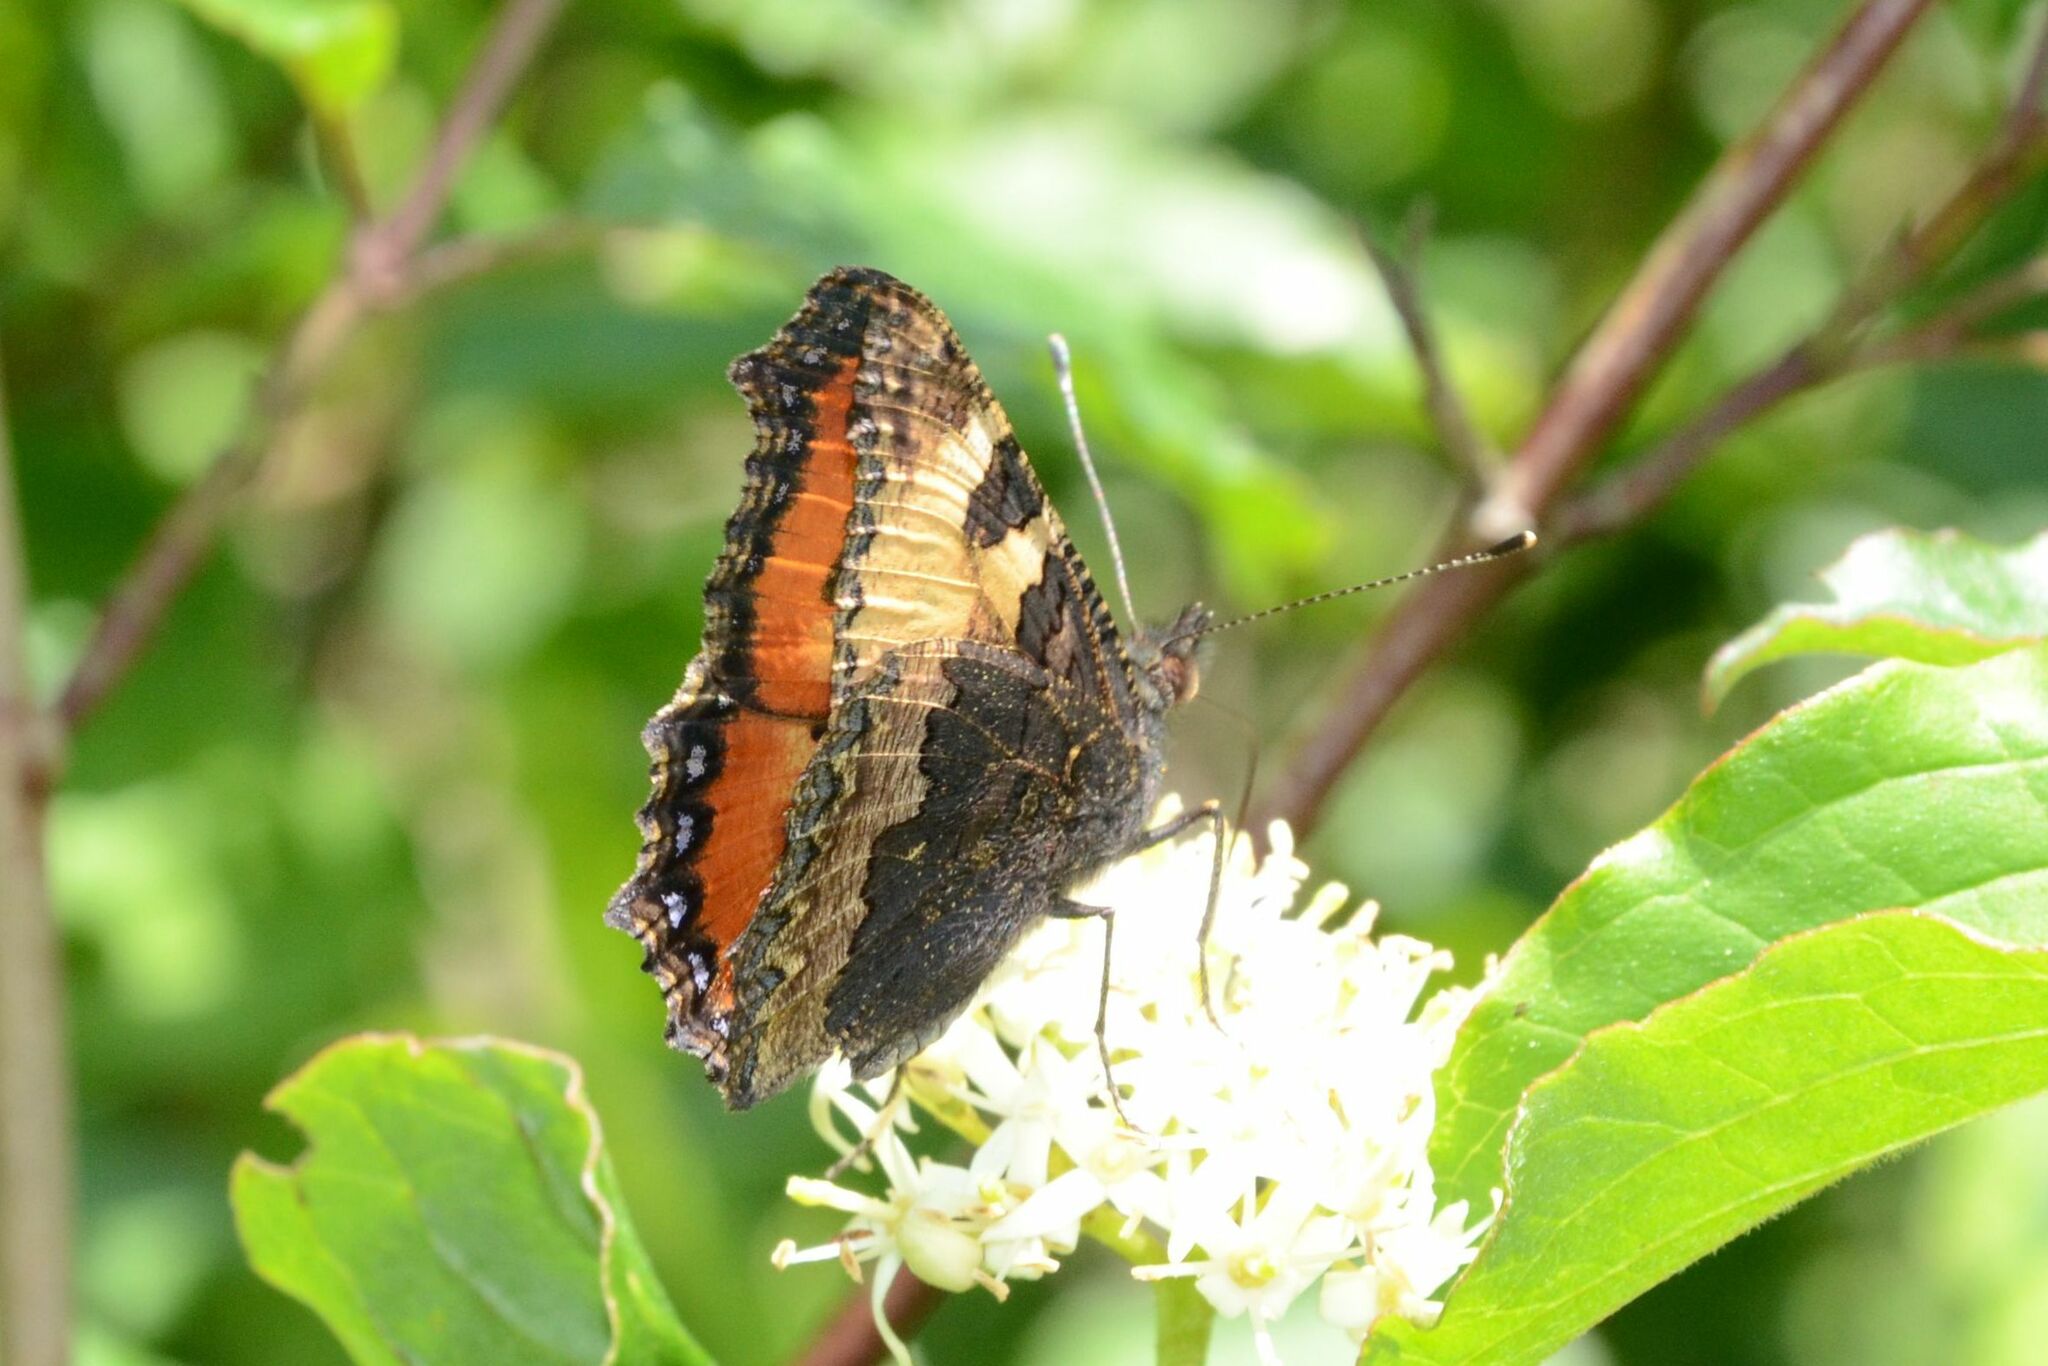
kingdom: Animalia
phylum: Arthropoda
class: Insecta
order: Lepidoptera
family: Nymphalidae
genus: Aglais
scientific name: Aglais urticae
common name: Small tortoiseshell
